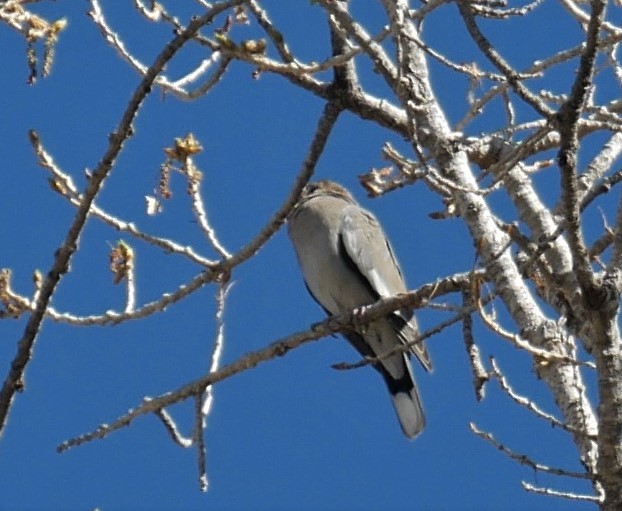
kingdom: Animalia
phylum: Chordata
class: Aves
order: Columbiformes
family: Columbidae
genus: Zenaida
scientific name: Zenaida asiatica
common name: White-winged dove
